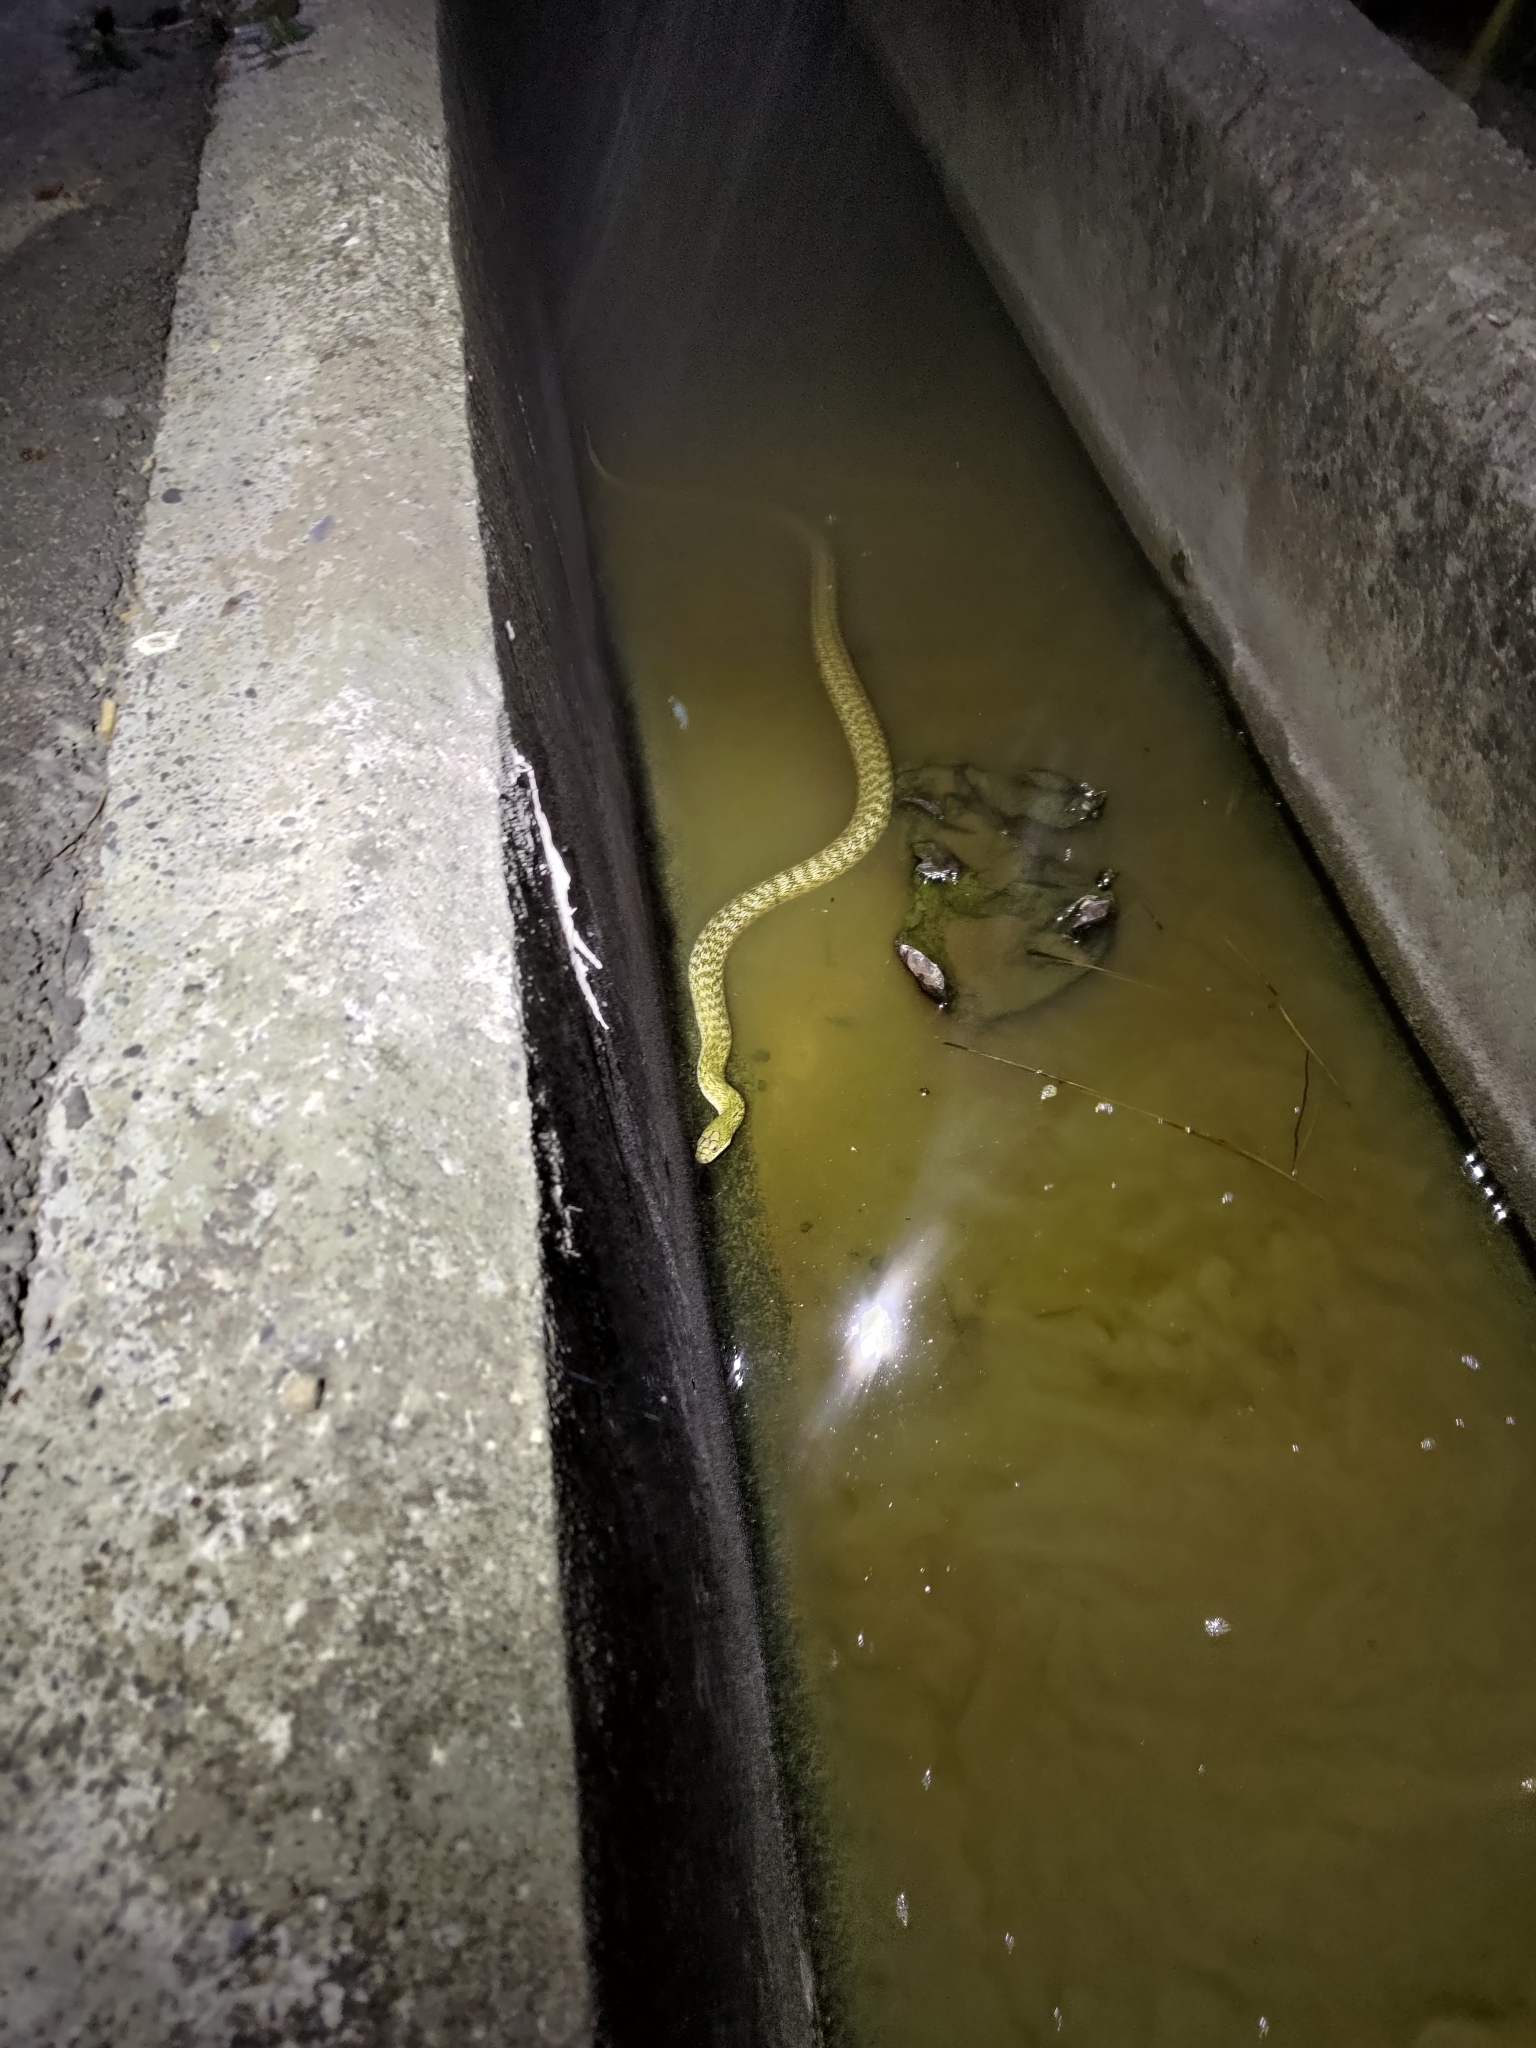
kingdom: Animalia
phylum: Chordata
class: Squamata
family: Colubridae
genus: Elaphe
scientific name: Elaphe carinata
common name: Taiwan stink snake
